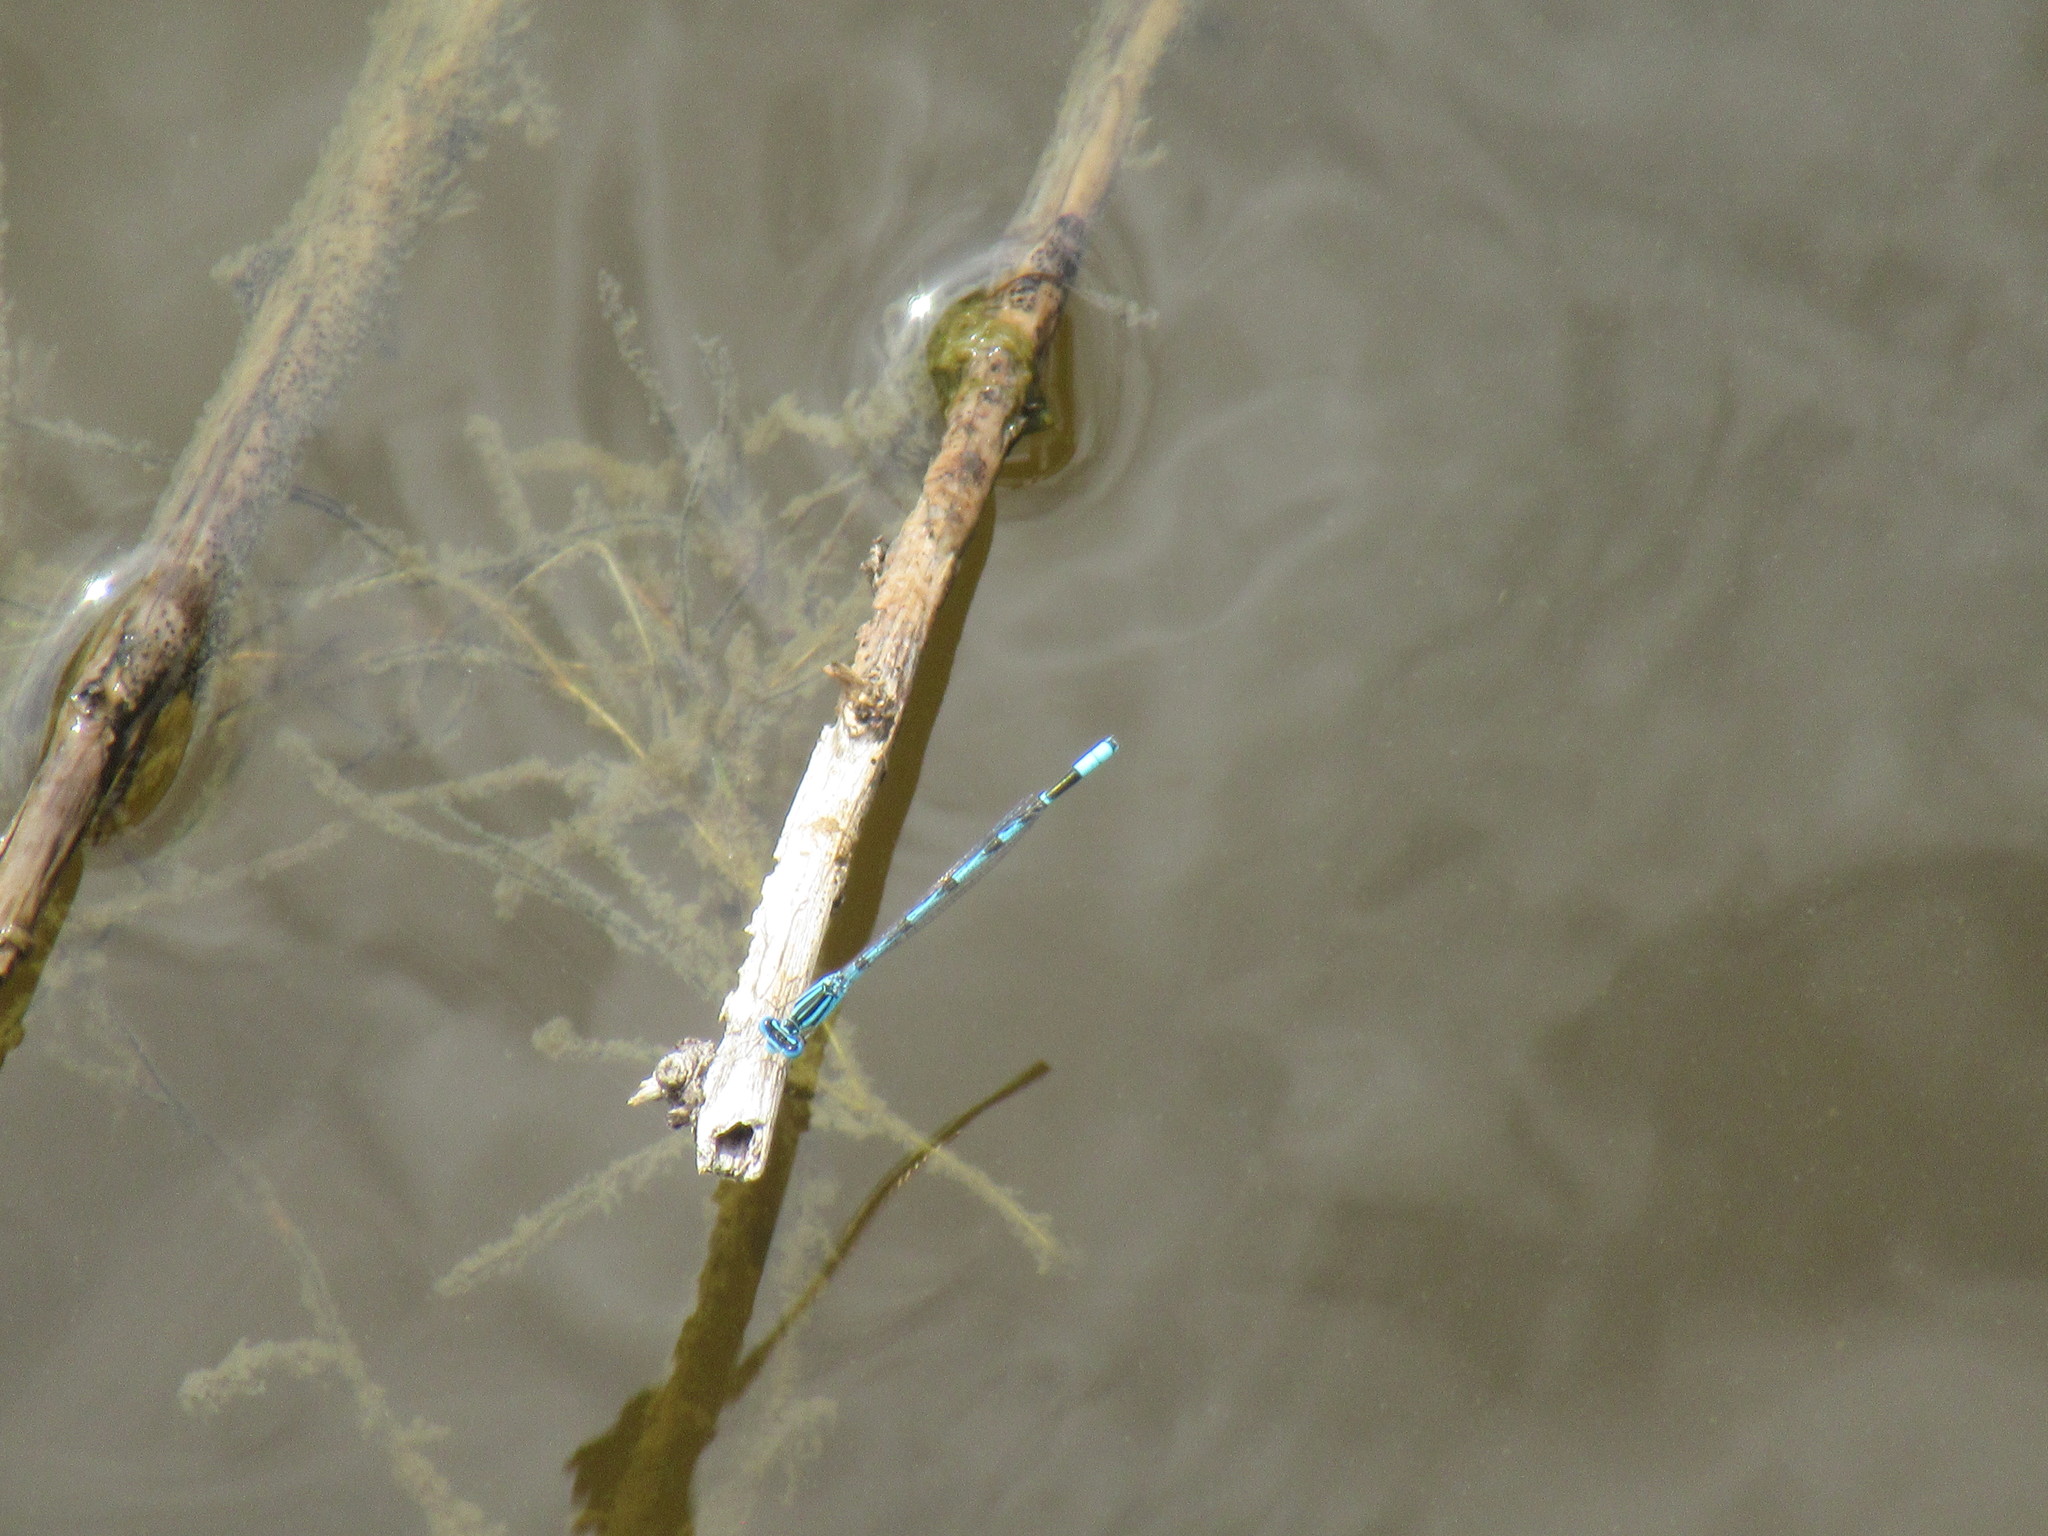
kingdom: Animalia
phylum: Arthropoda
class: Insecta
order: Odonata
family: Coenagrionidae
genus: Enallagma
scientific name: Enallagma durum
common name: Big bluet
